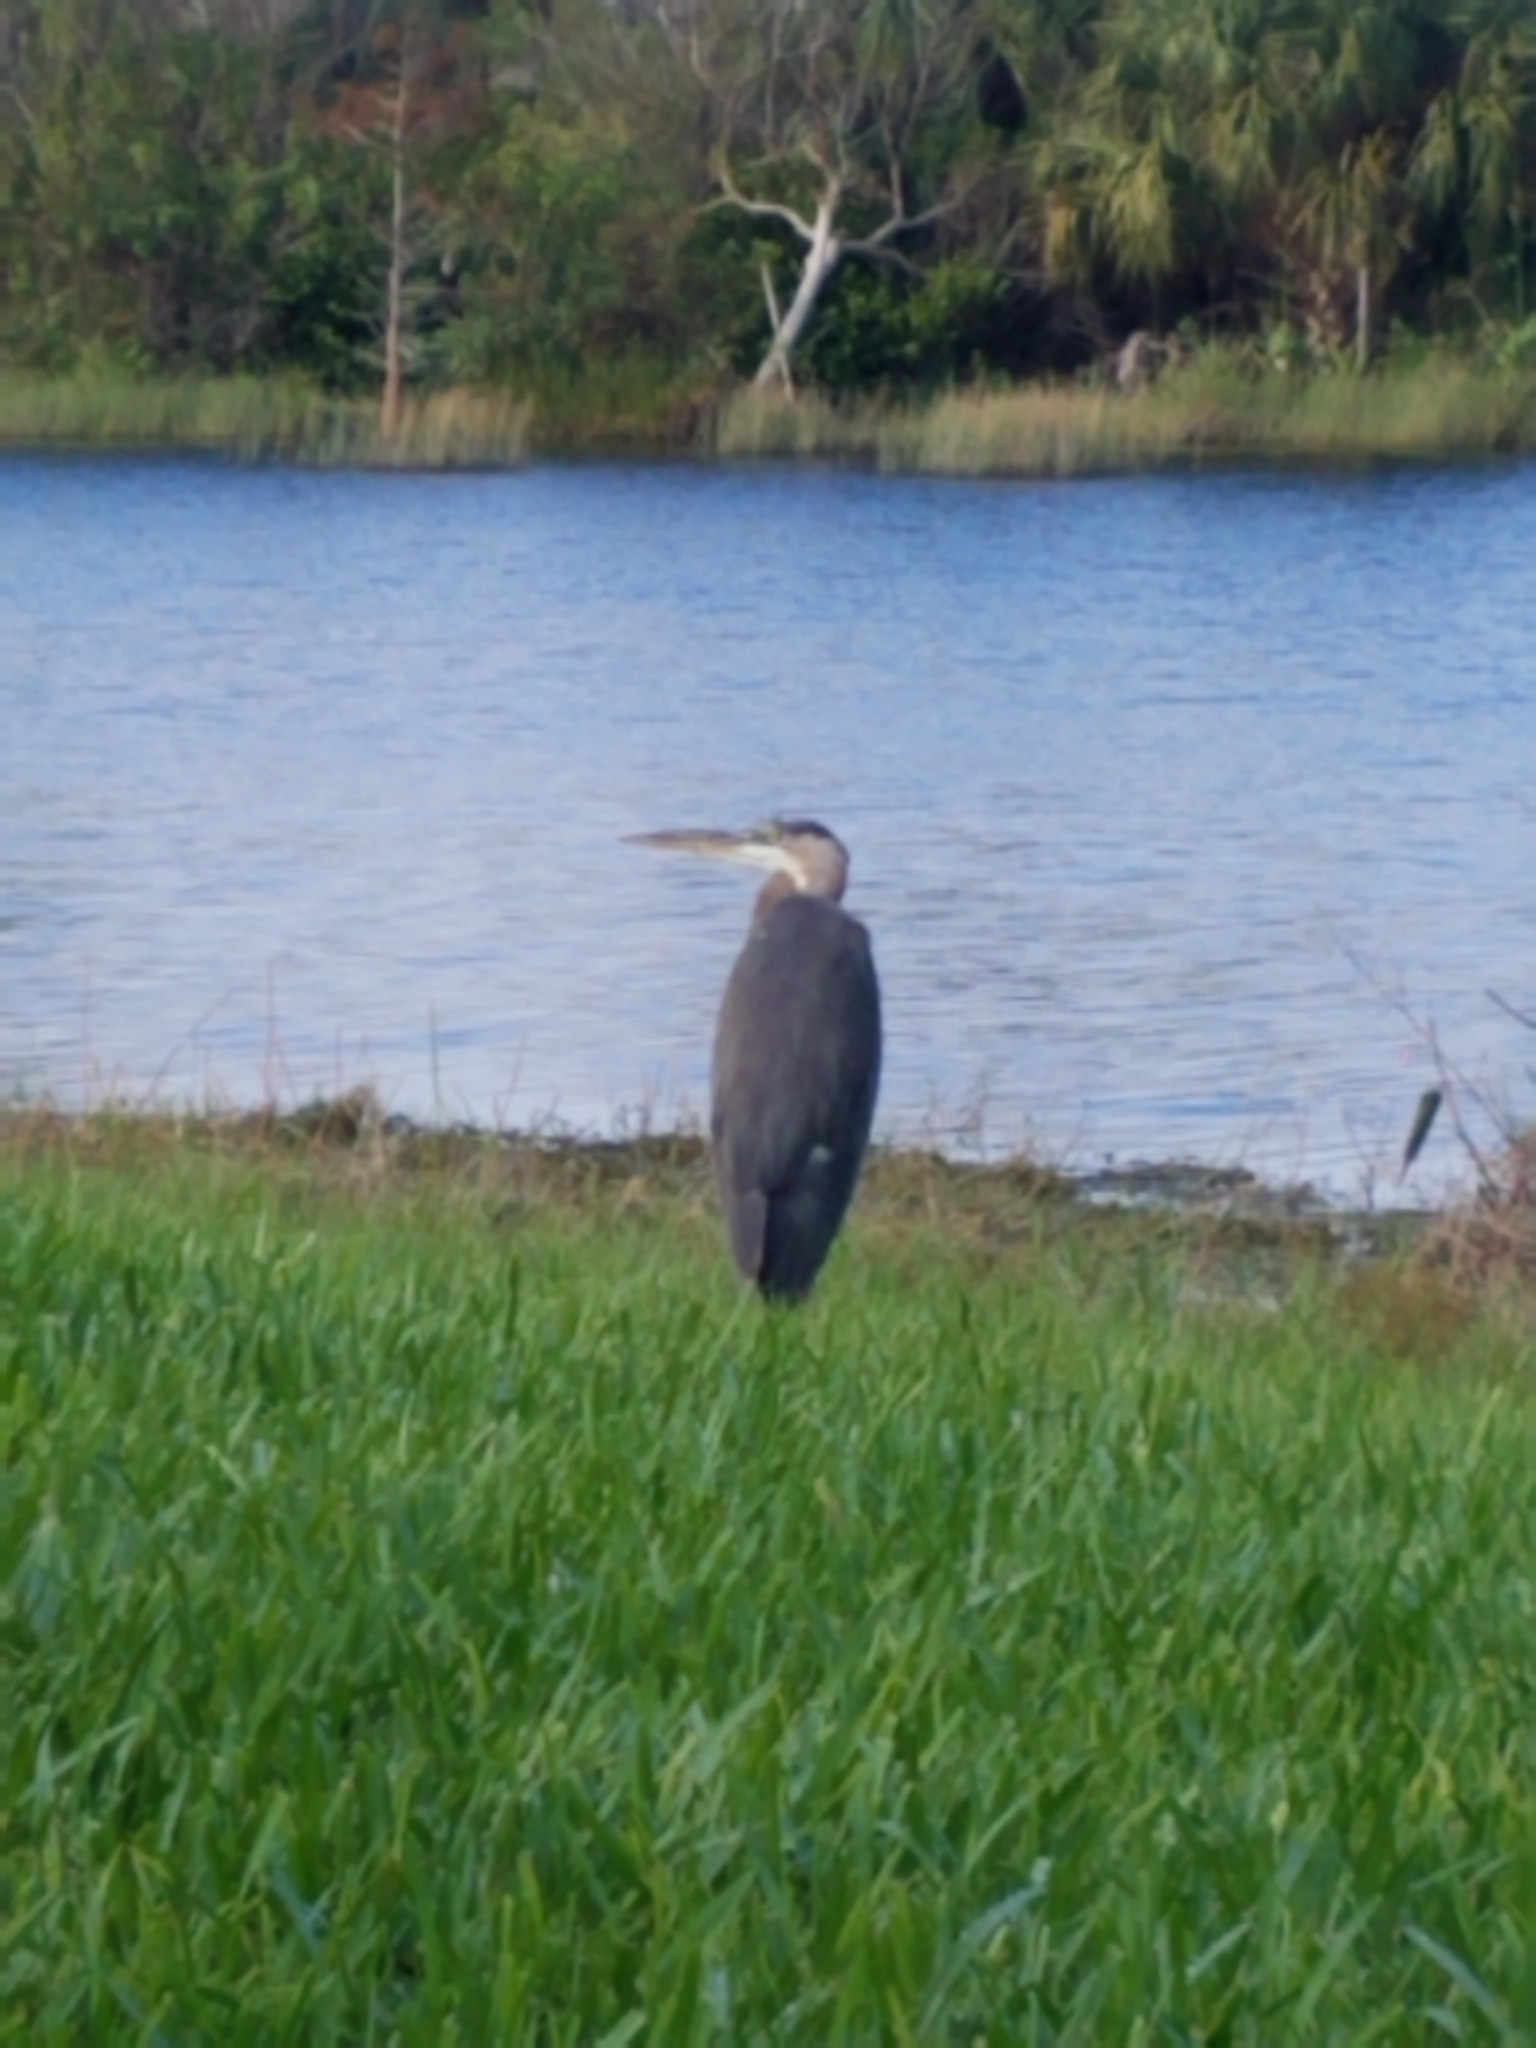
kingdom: Animalia
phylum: Chordata
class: Aves
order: Pelecaniformes
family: Ardeidae
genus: Ardea
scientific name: Ardea herodias
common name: Great blue heron
